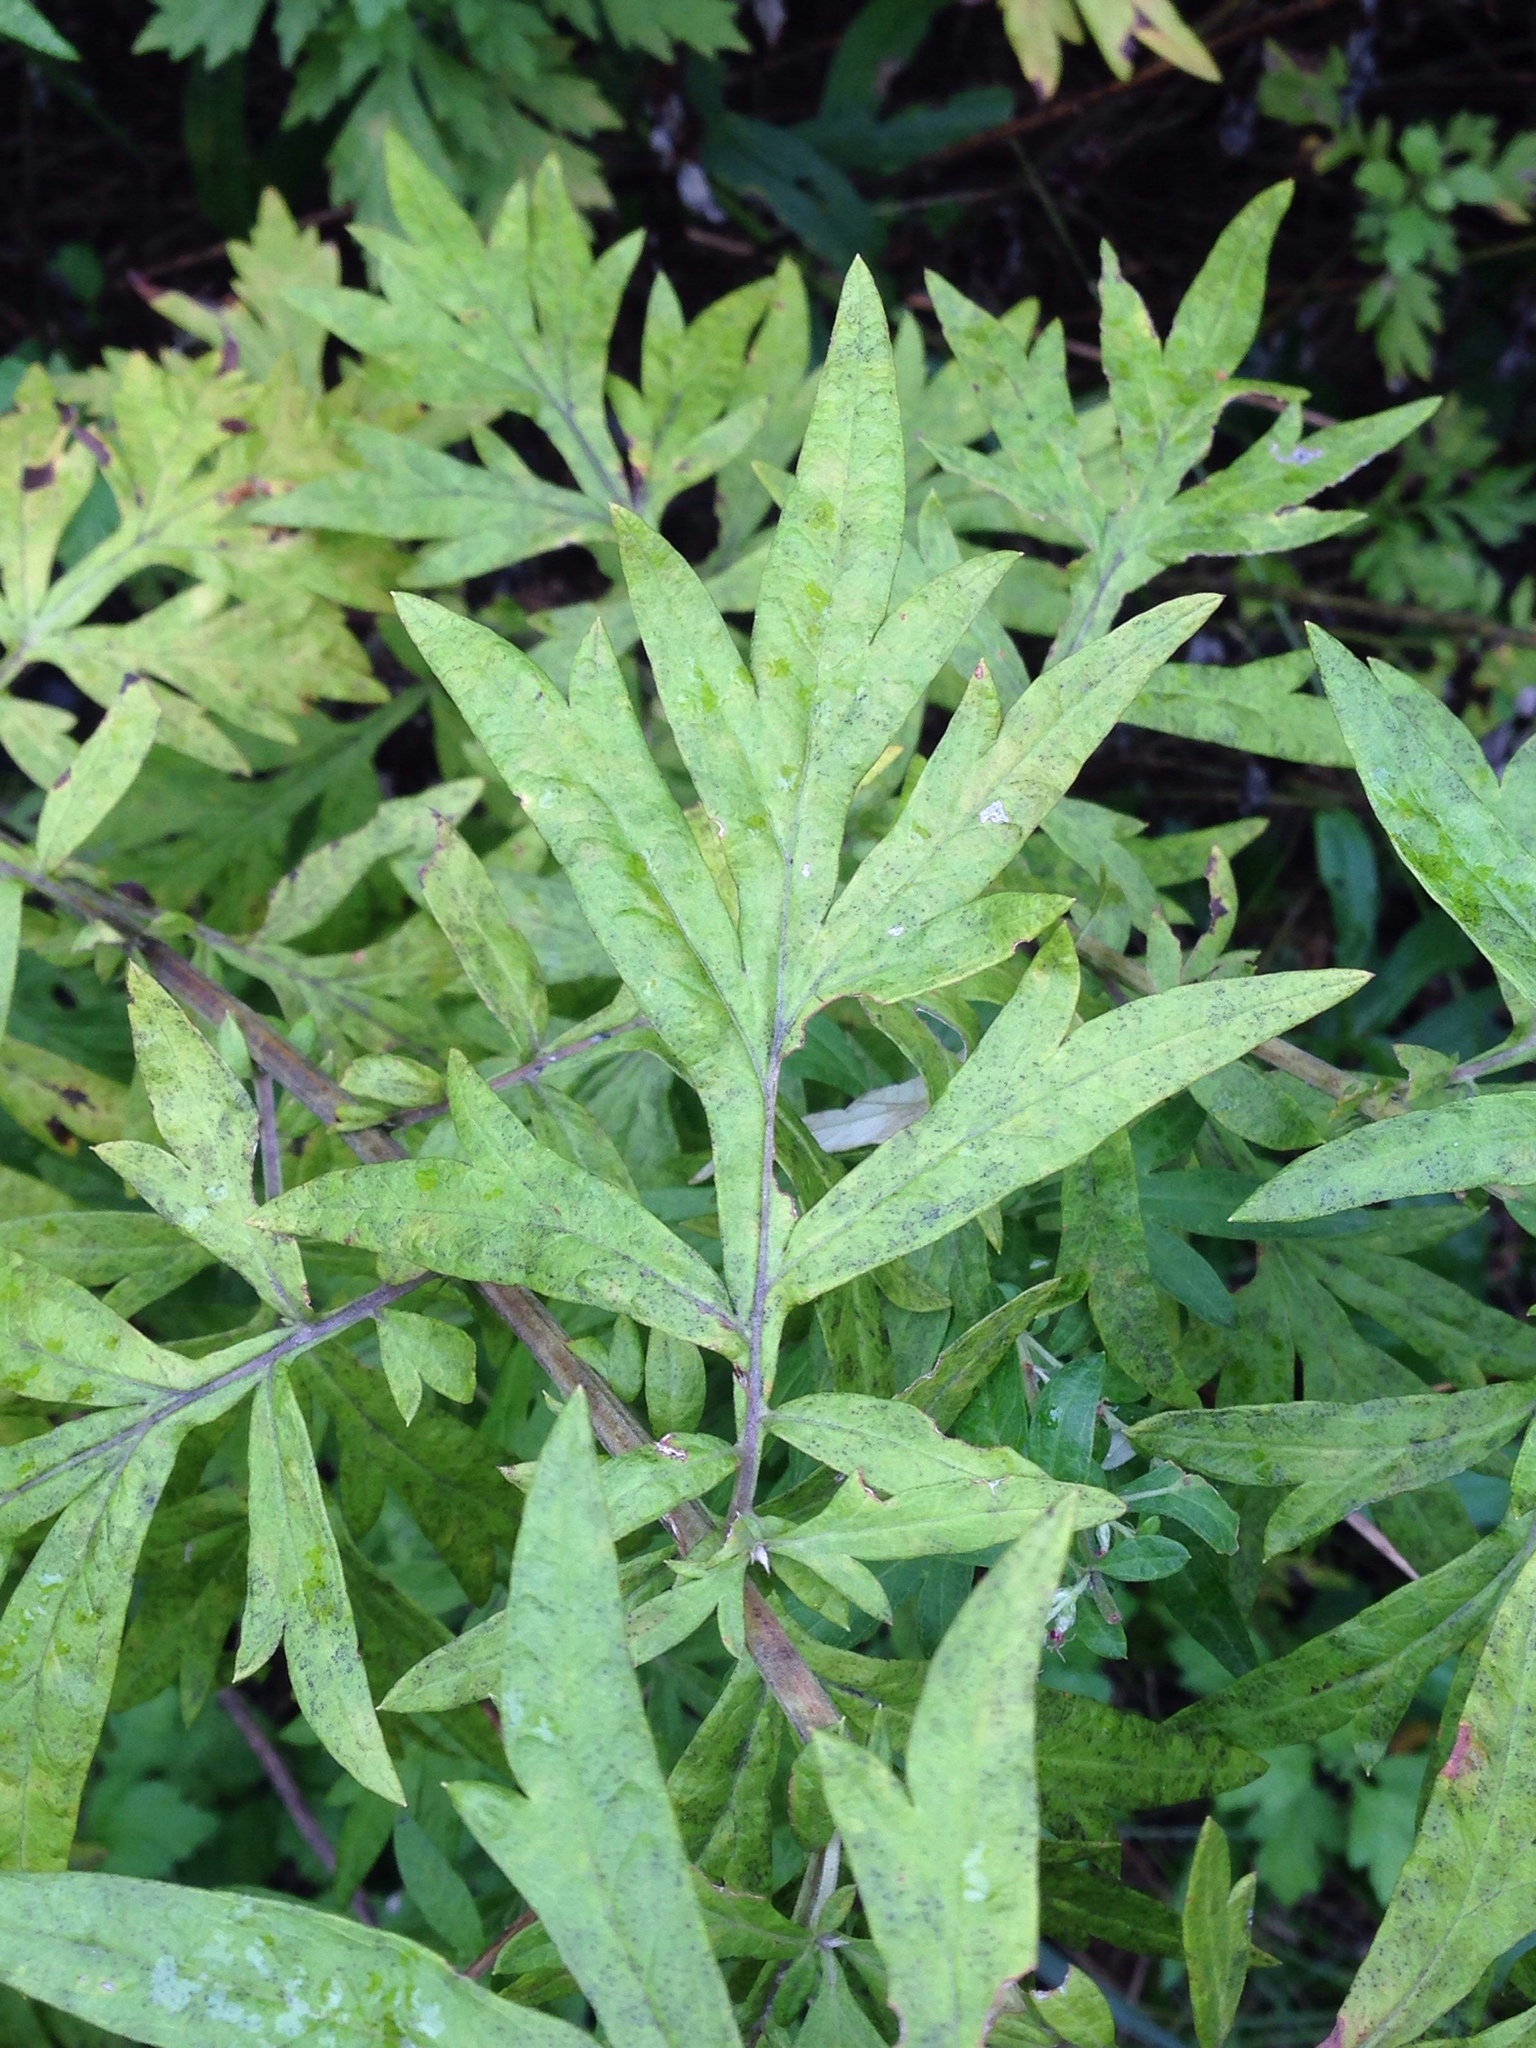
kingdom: Plantae
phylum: Tracheophyta
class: Magnoliopsida
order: Asterales
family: Asteraceae
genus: Artemisia
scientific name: Artemisia vulgaris
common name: Mugwort
